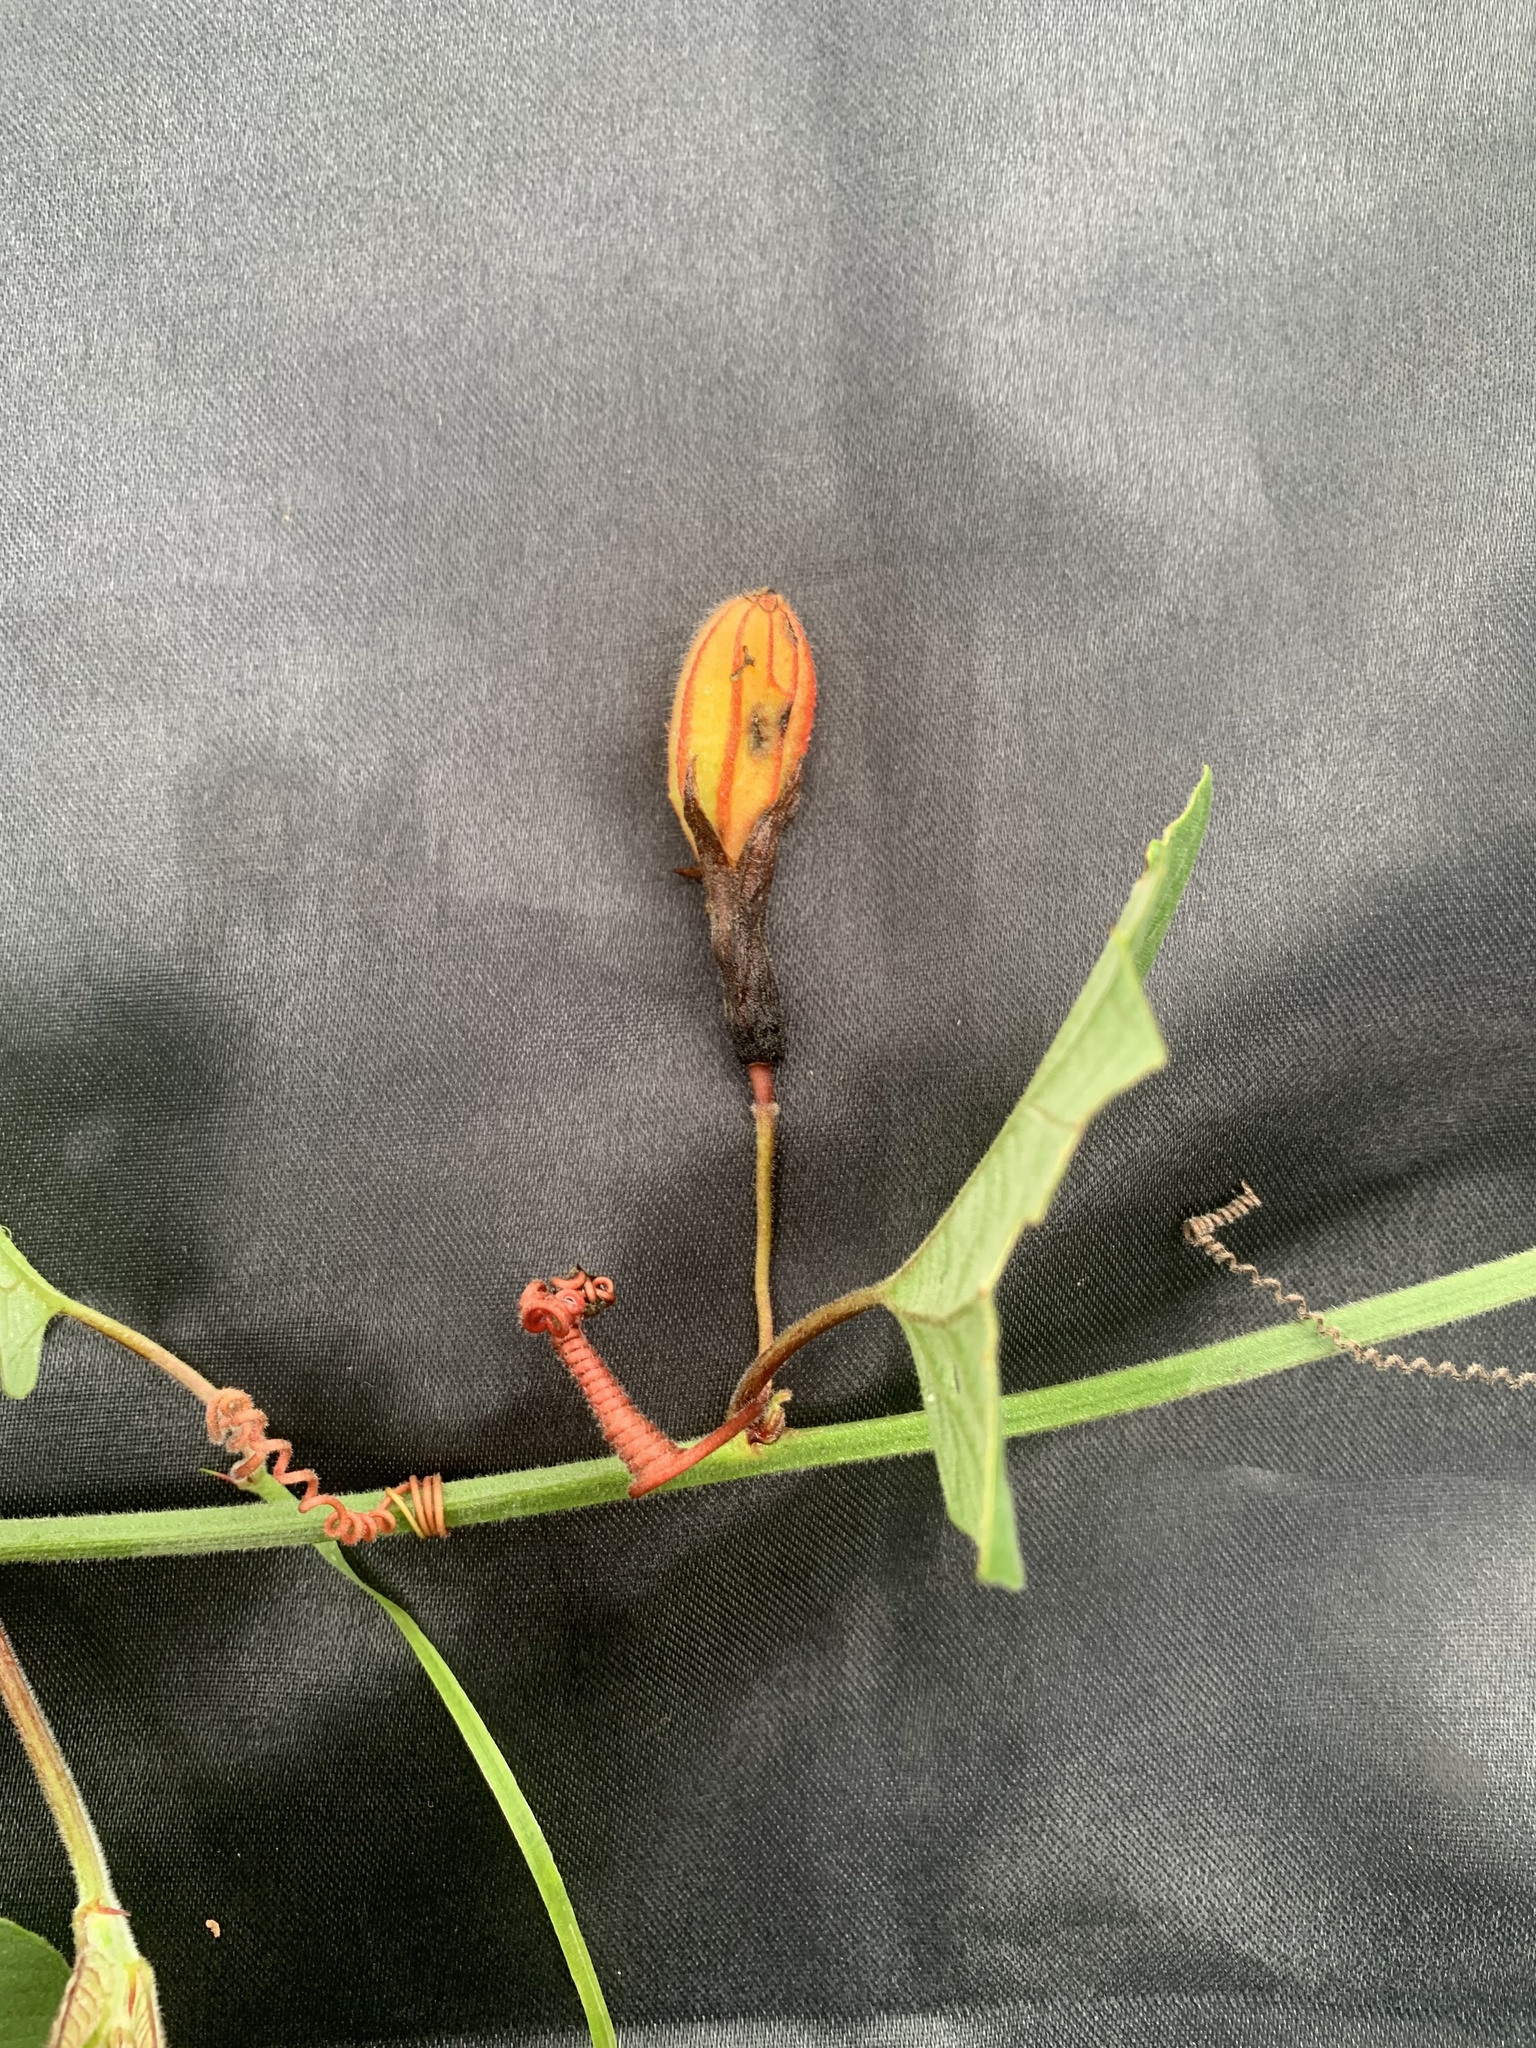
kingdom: Plantae
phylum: Tracheophyta
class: Magnoliopsida
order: Malpighiales
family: Passifloraceae
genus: Passiflora
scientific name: Passiflora cisnana
